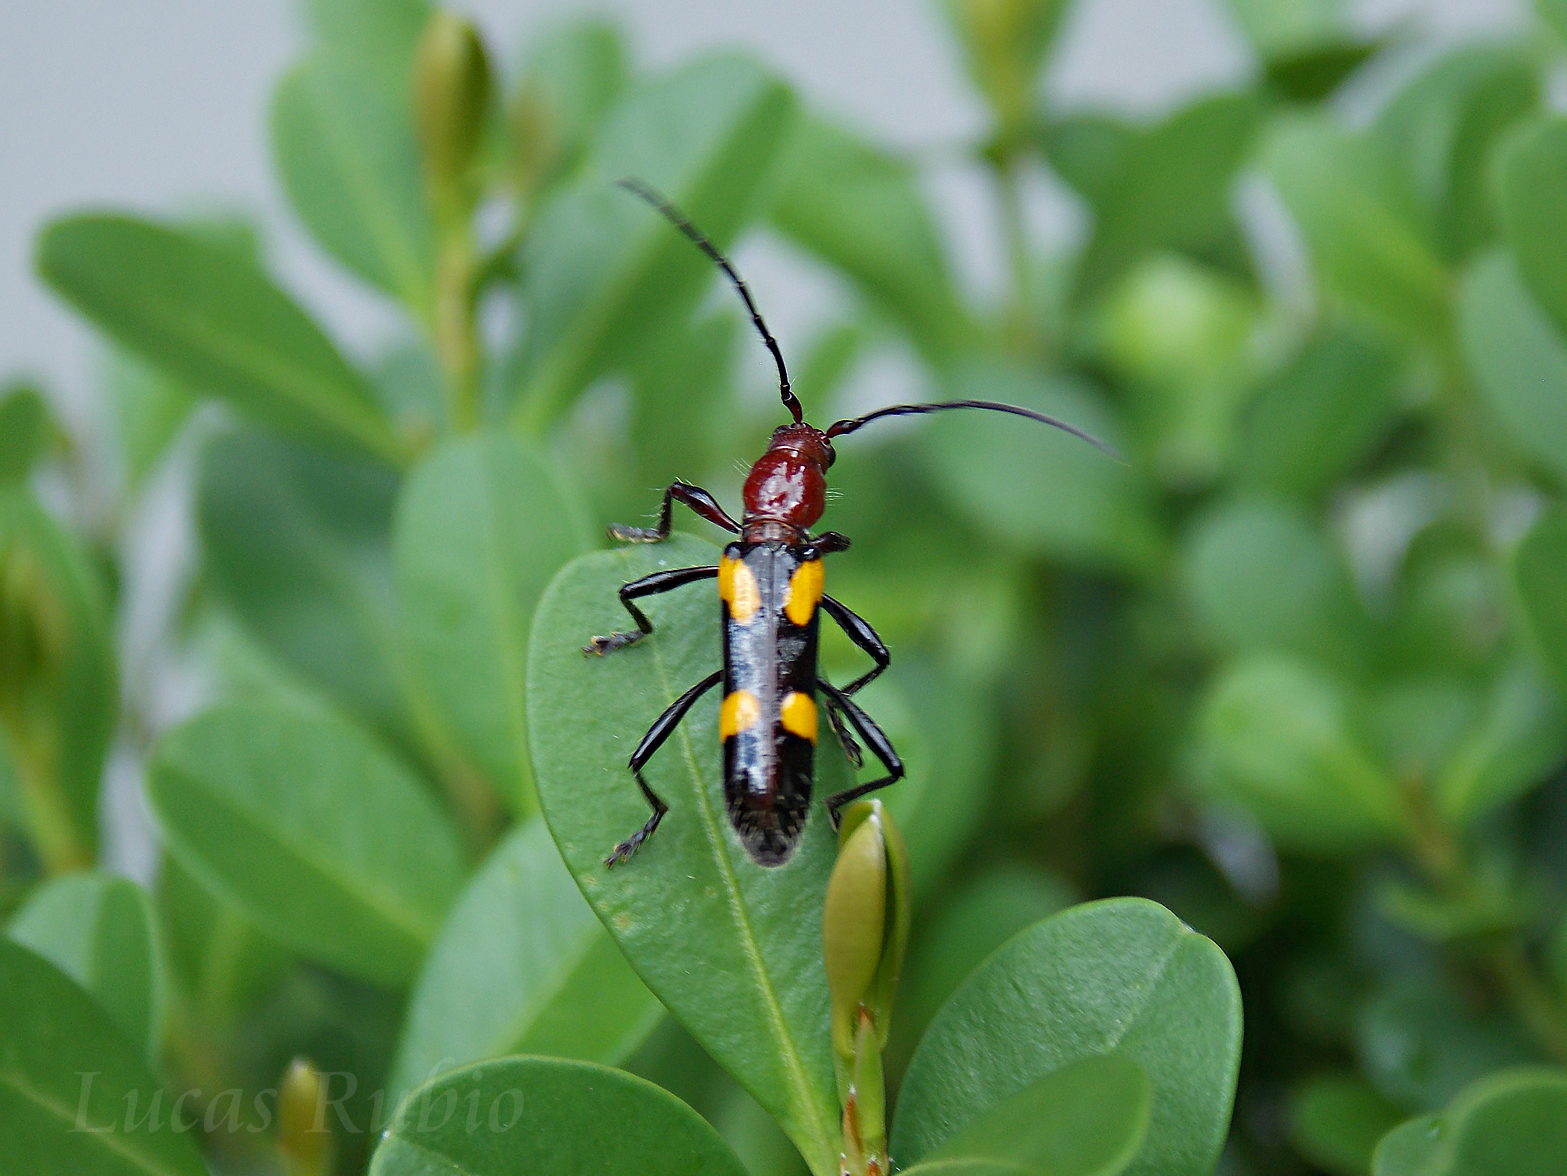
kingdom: Animalia
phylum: Arthropoda
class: Insecta
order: Coleoptera
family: Cerambycidae
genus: Stenygra
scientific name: Stenygra conspicua
